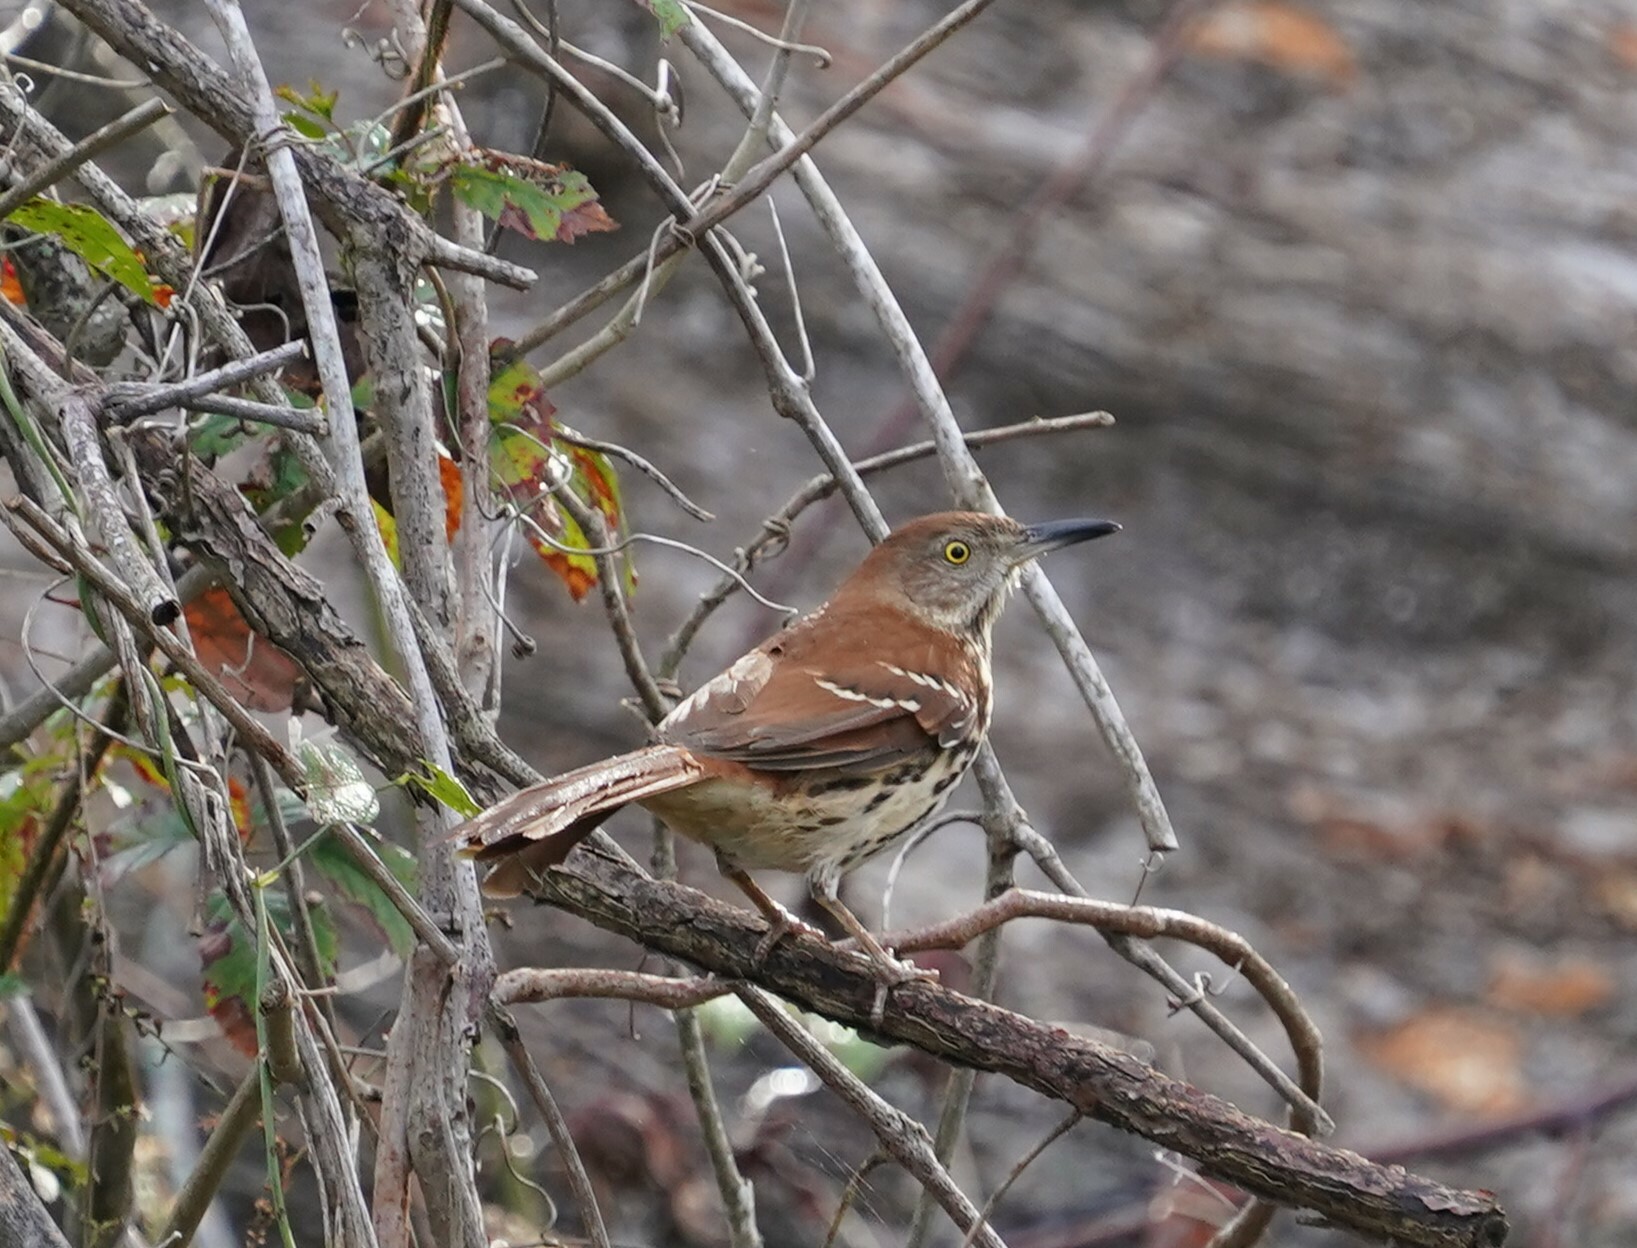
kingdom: Animalia
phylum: Chordata
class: Aves
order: Passeriformes
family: Mimidae
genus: Toxostoma
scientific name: Toxostoma rufum
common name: Brown thrasher
